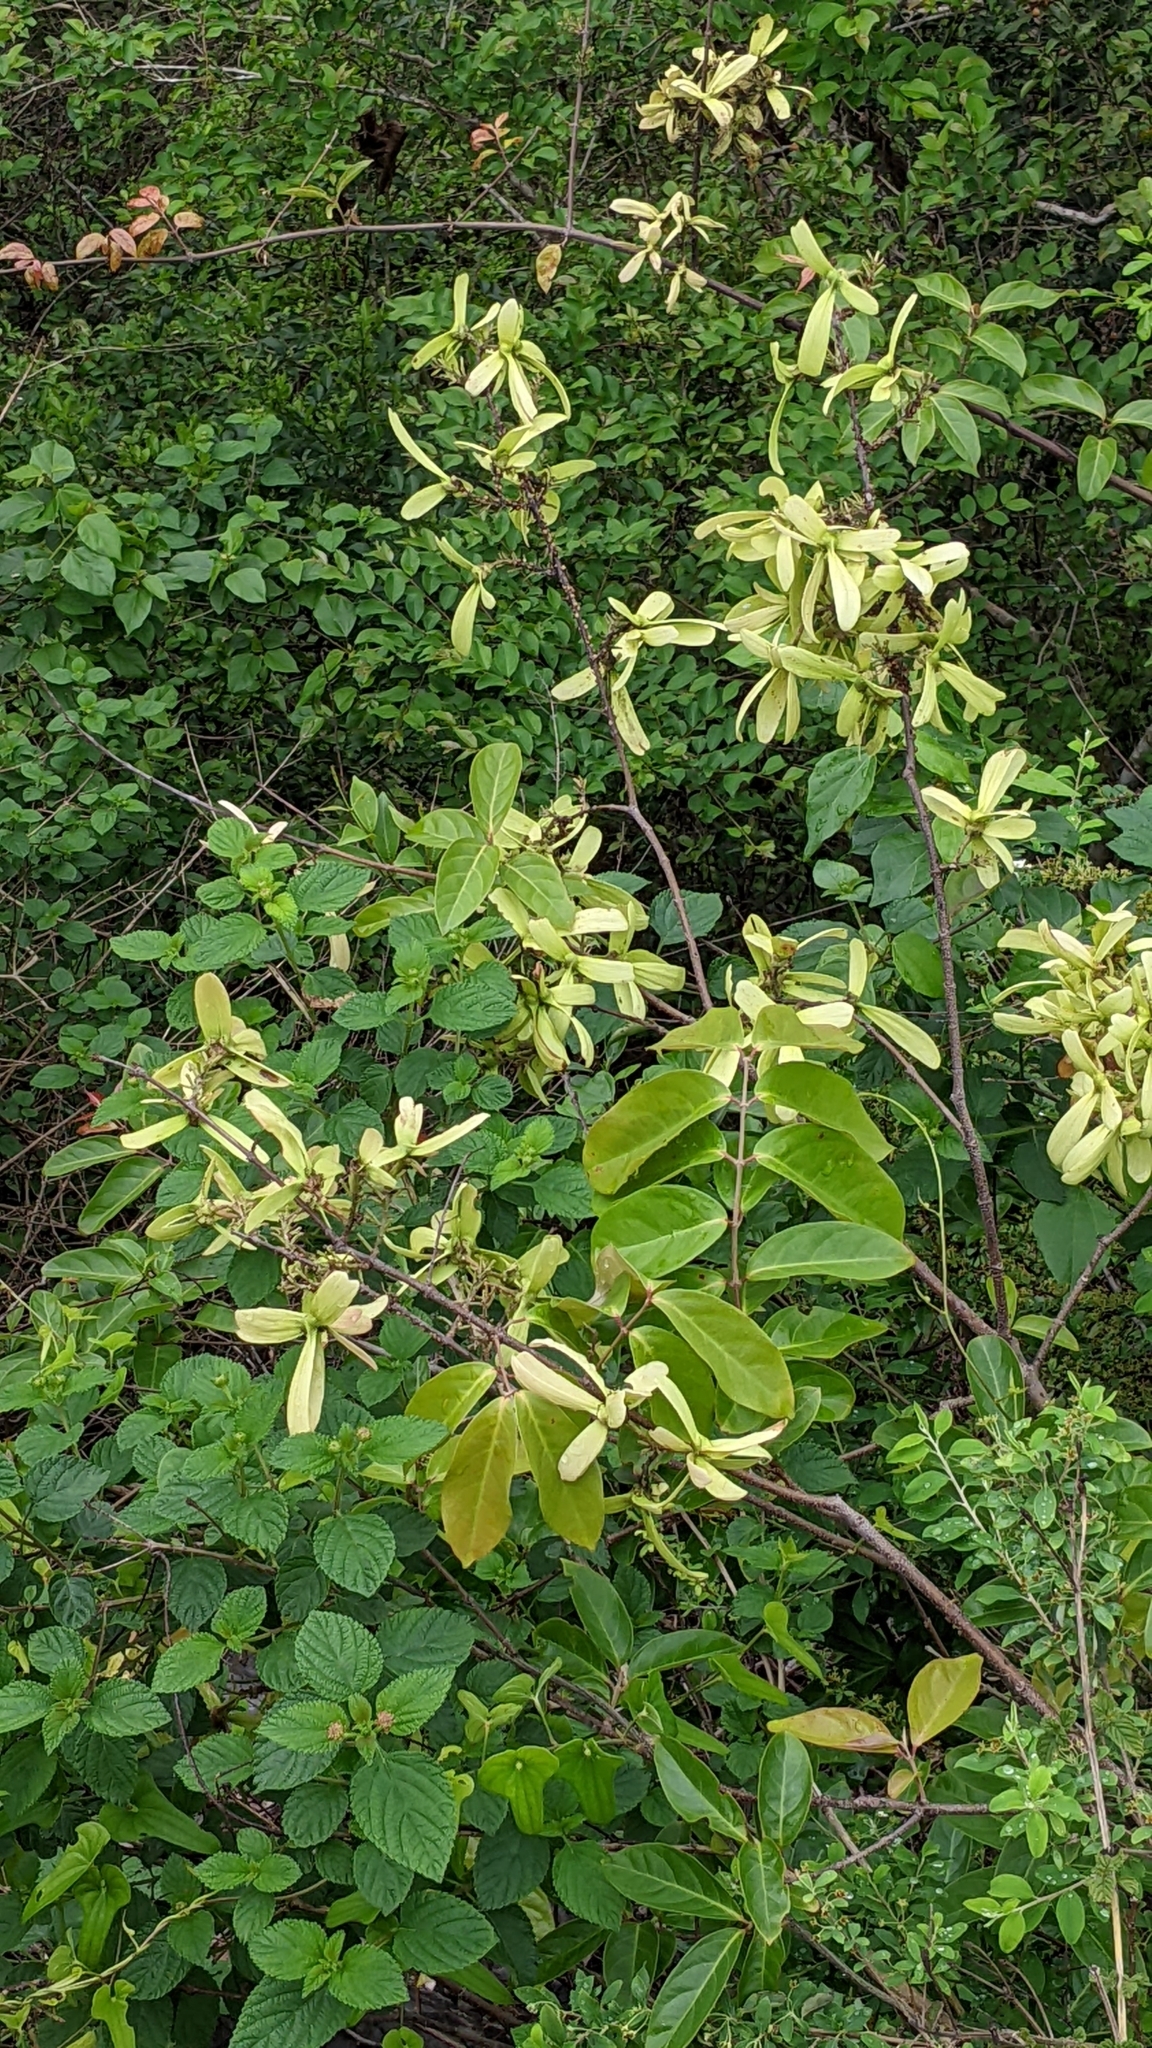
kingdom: Plantae
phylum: Tracheophyta
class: Magnoliopsida
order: Malpighiales
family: Malpighiaceae
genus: Hiptage
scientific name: Hiptage benghalensis
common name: Hiptage
